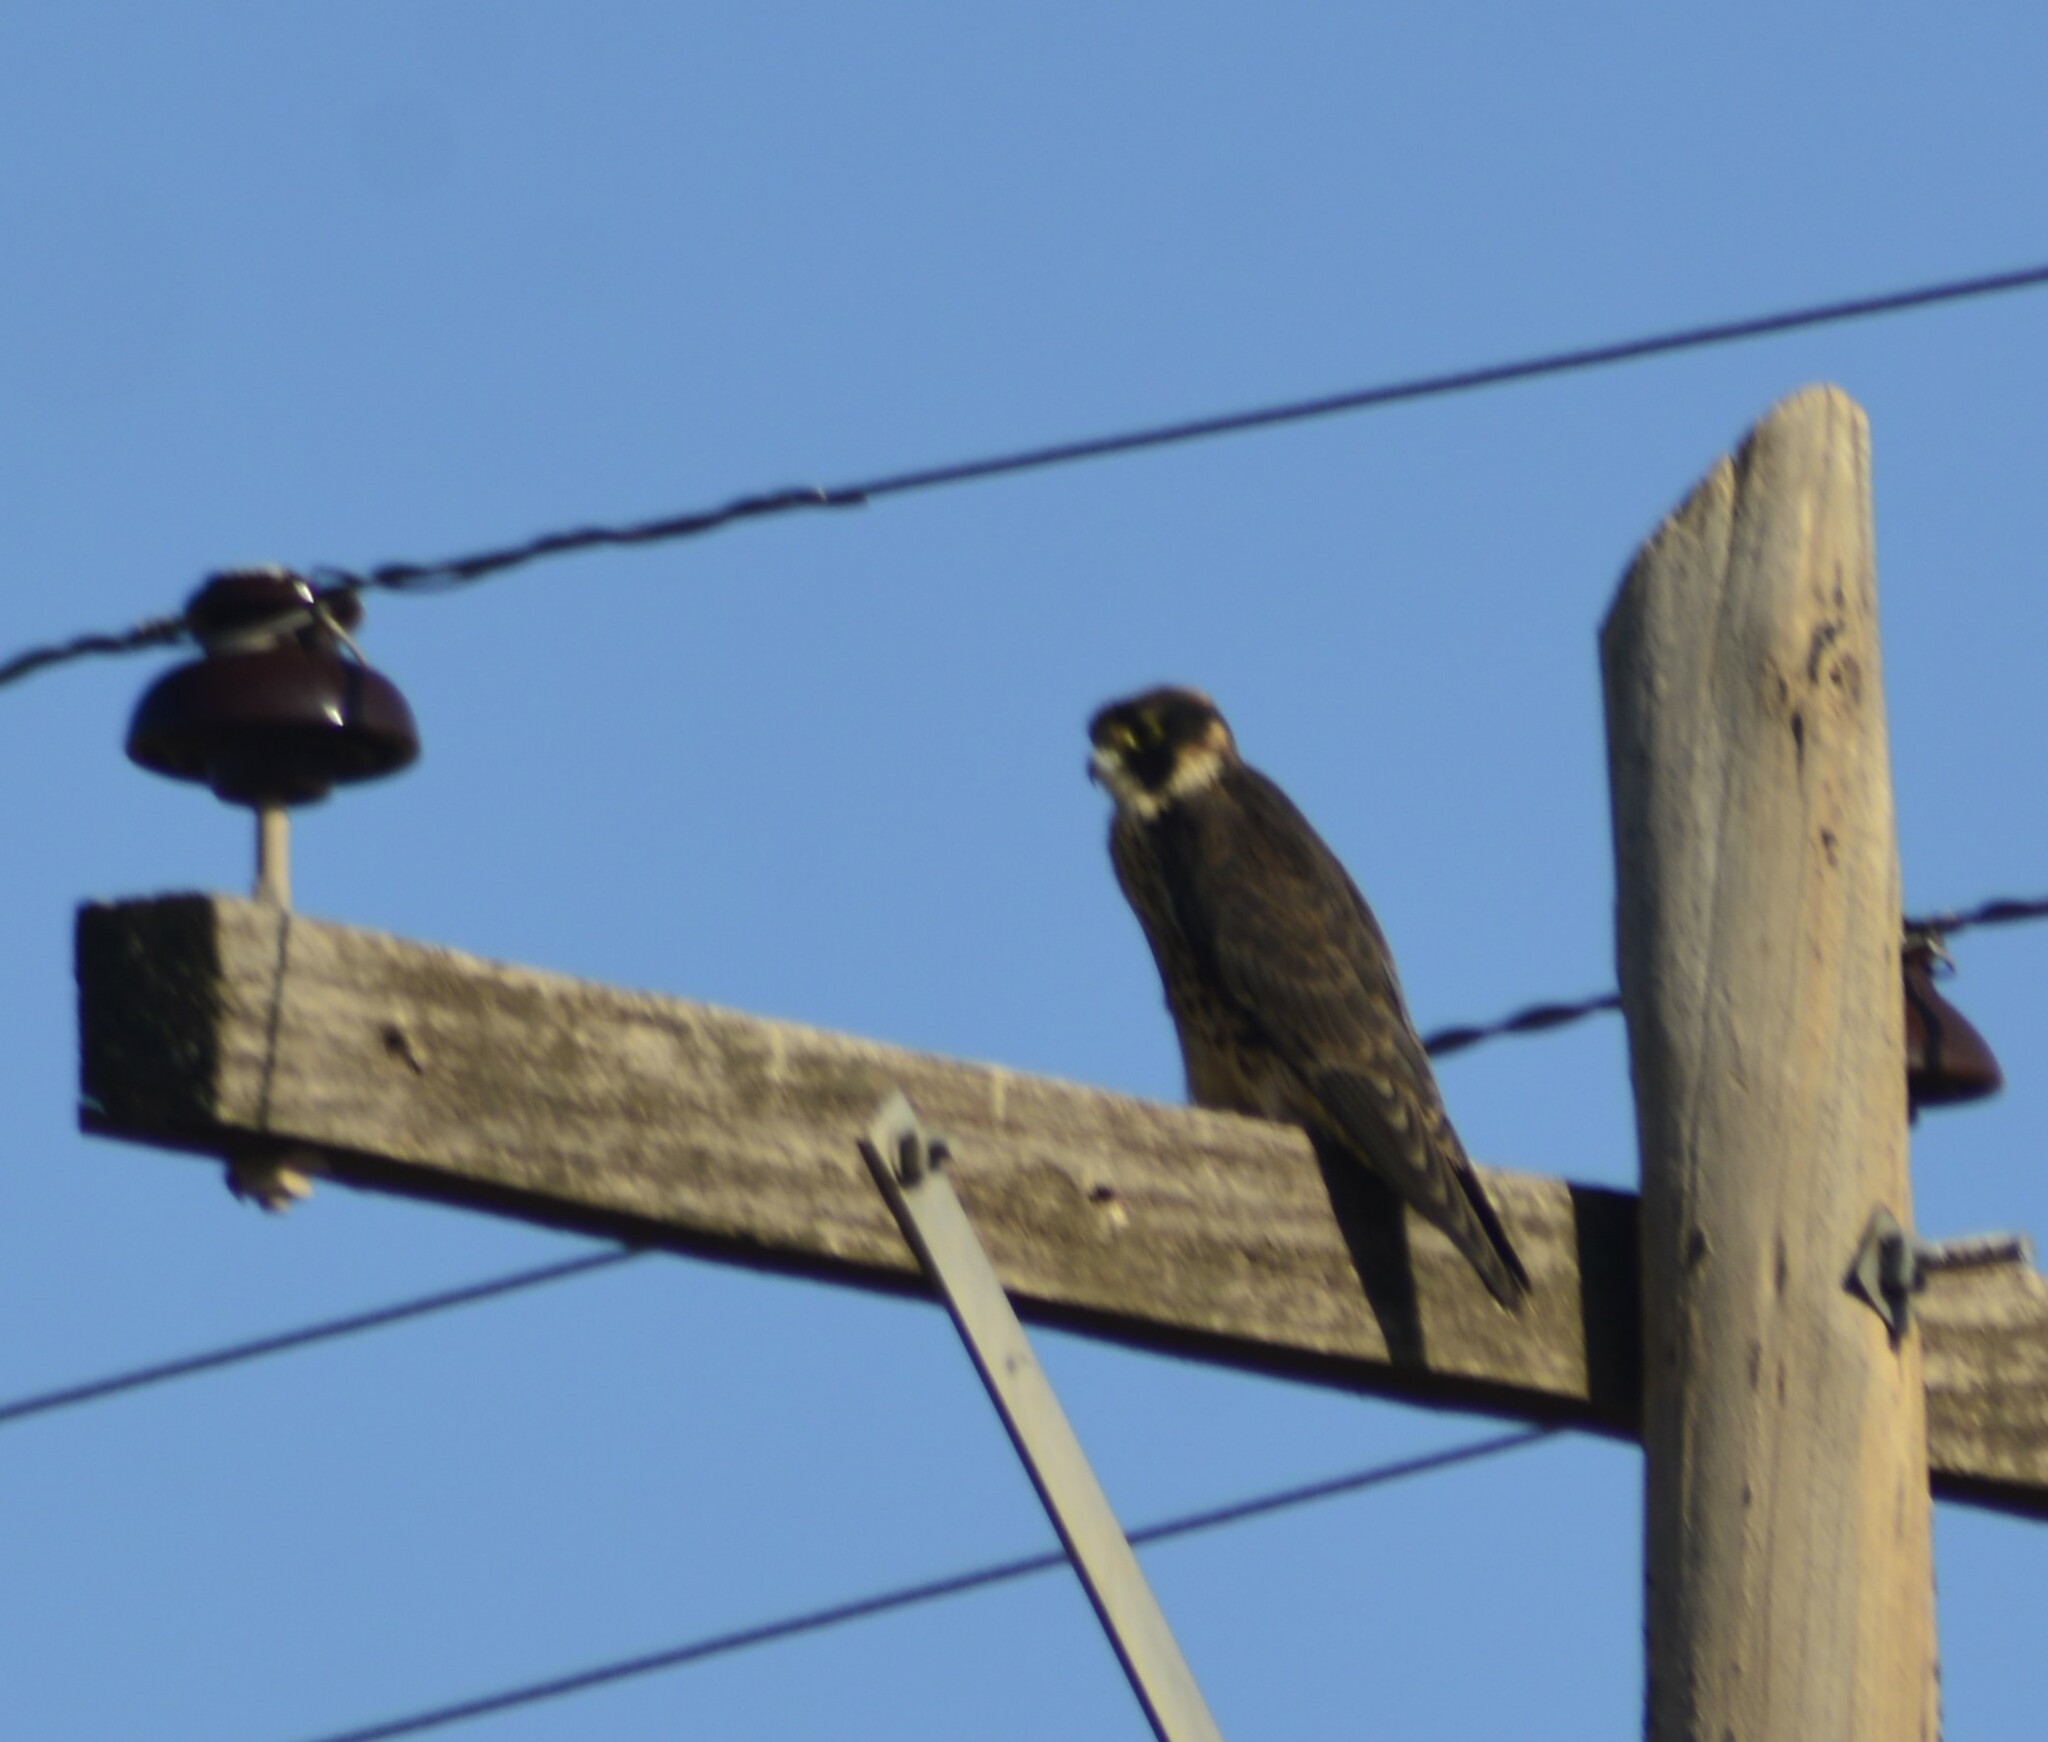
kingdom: Animalia
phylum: Chordata
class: Aves
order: Falconiformes
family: Falconidae
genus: Falco
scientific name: Falco peregrinus
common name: Peregrine falcon
